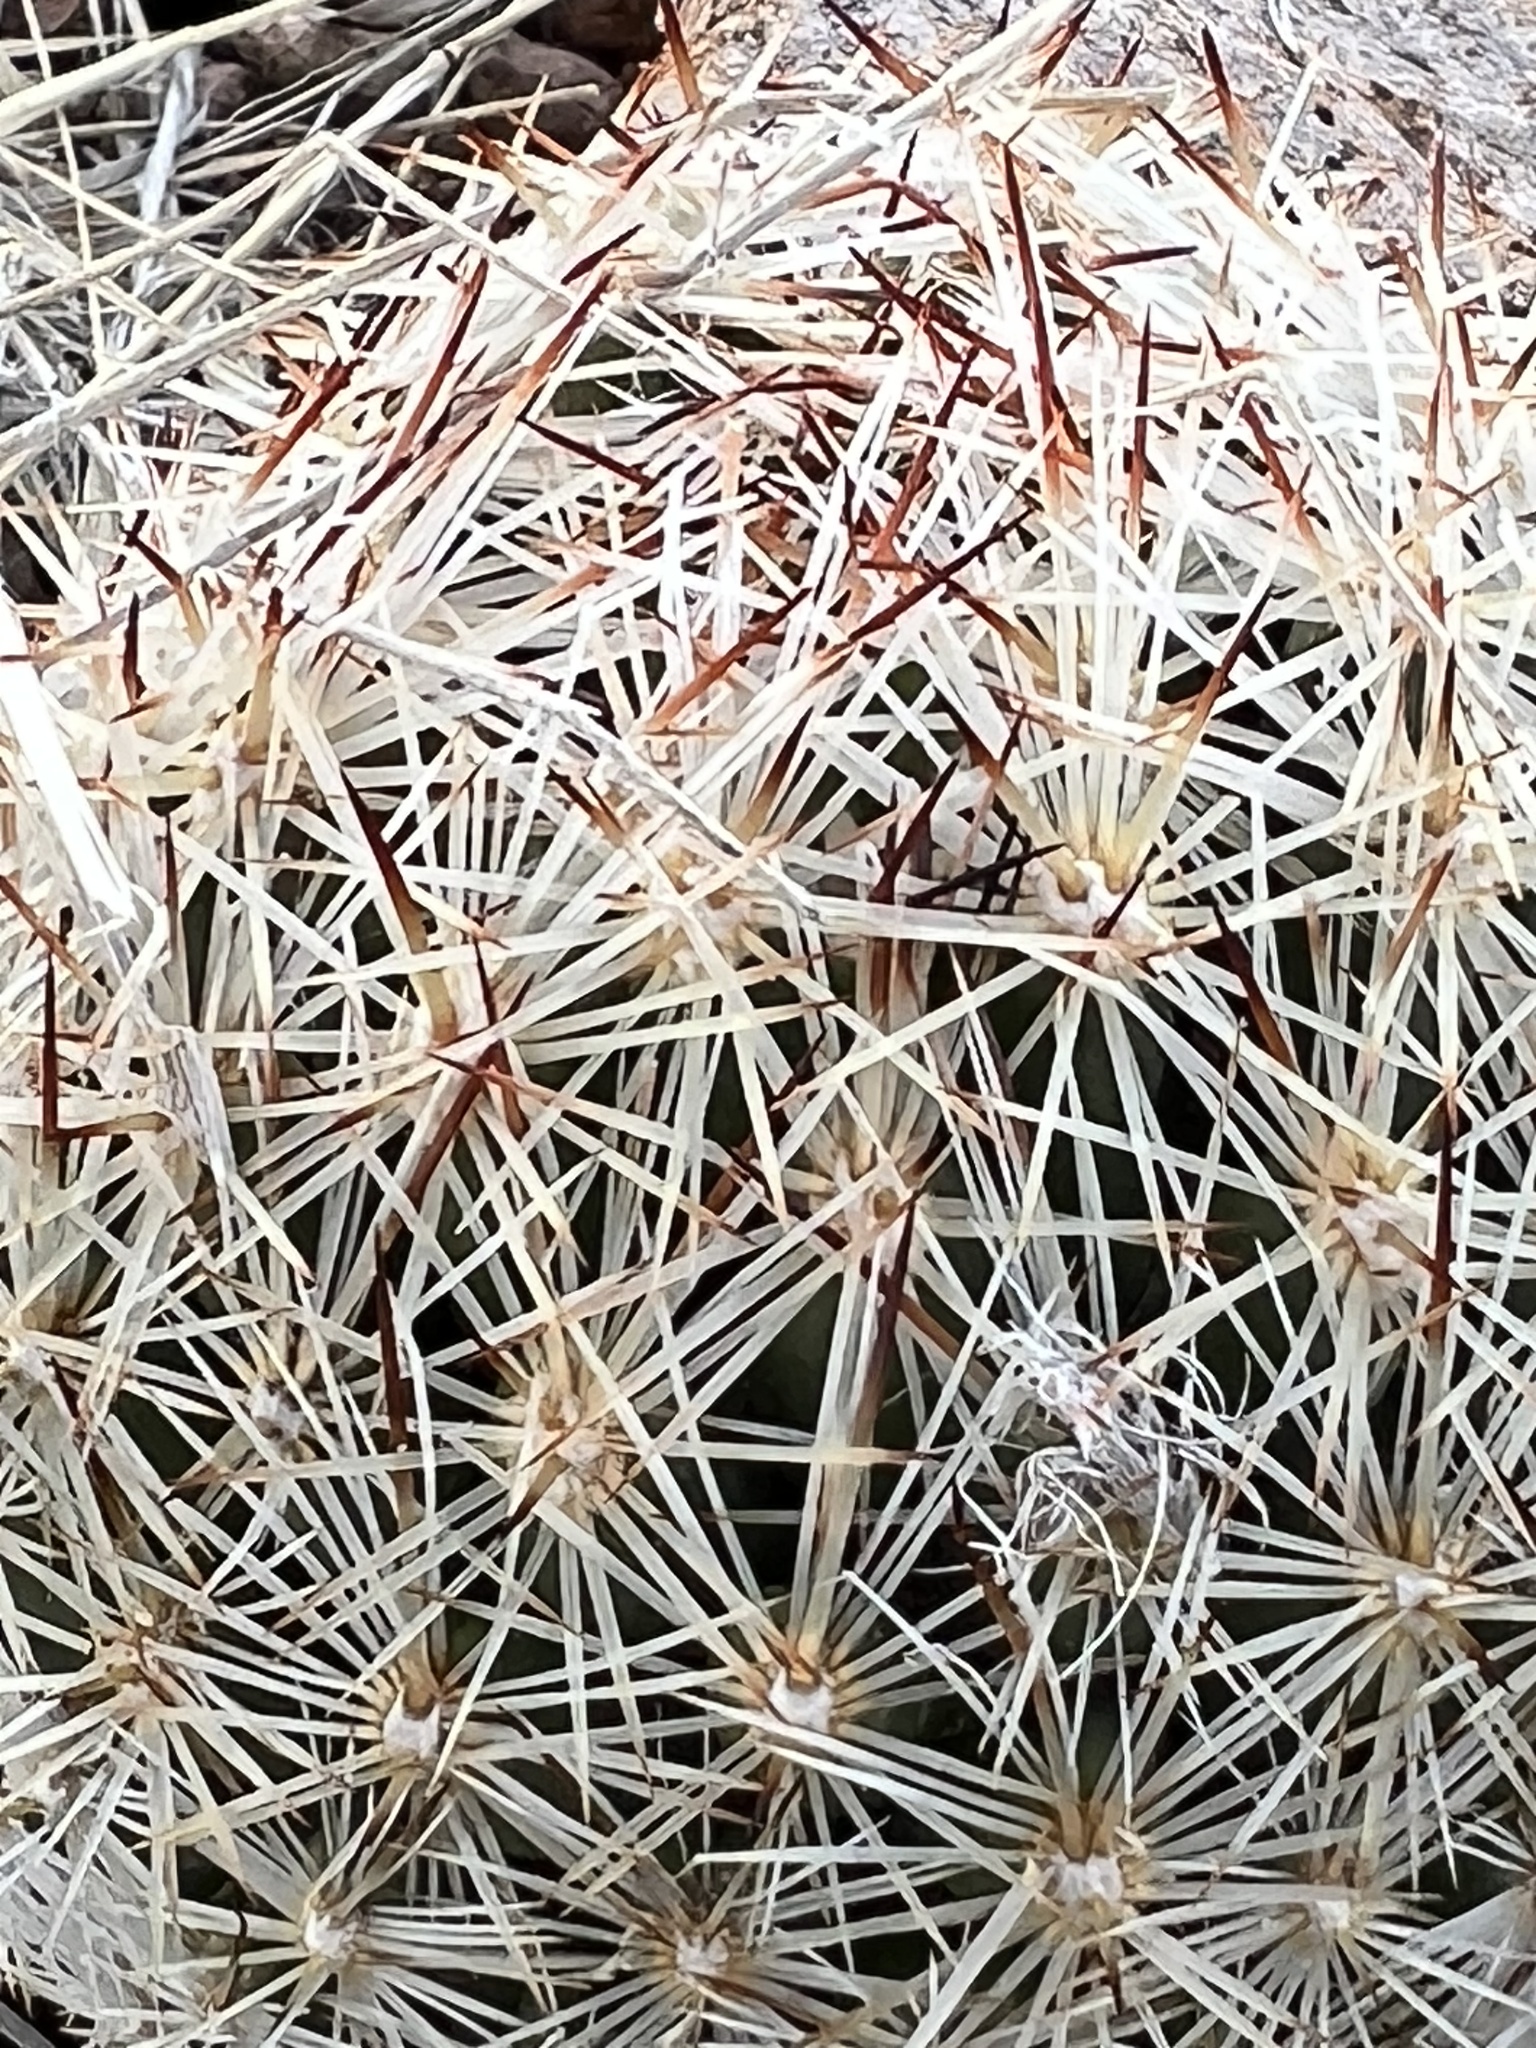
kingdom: Plantae
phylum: Tracheophyta
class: Magnoliopsida
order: Caryophyllales
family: Cactaceae
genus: Pelecyphora
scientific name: Pelecyphora vivipara
